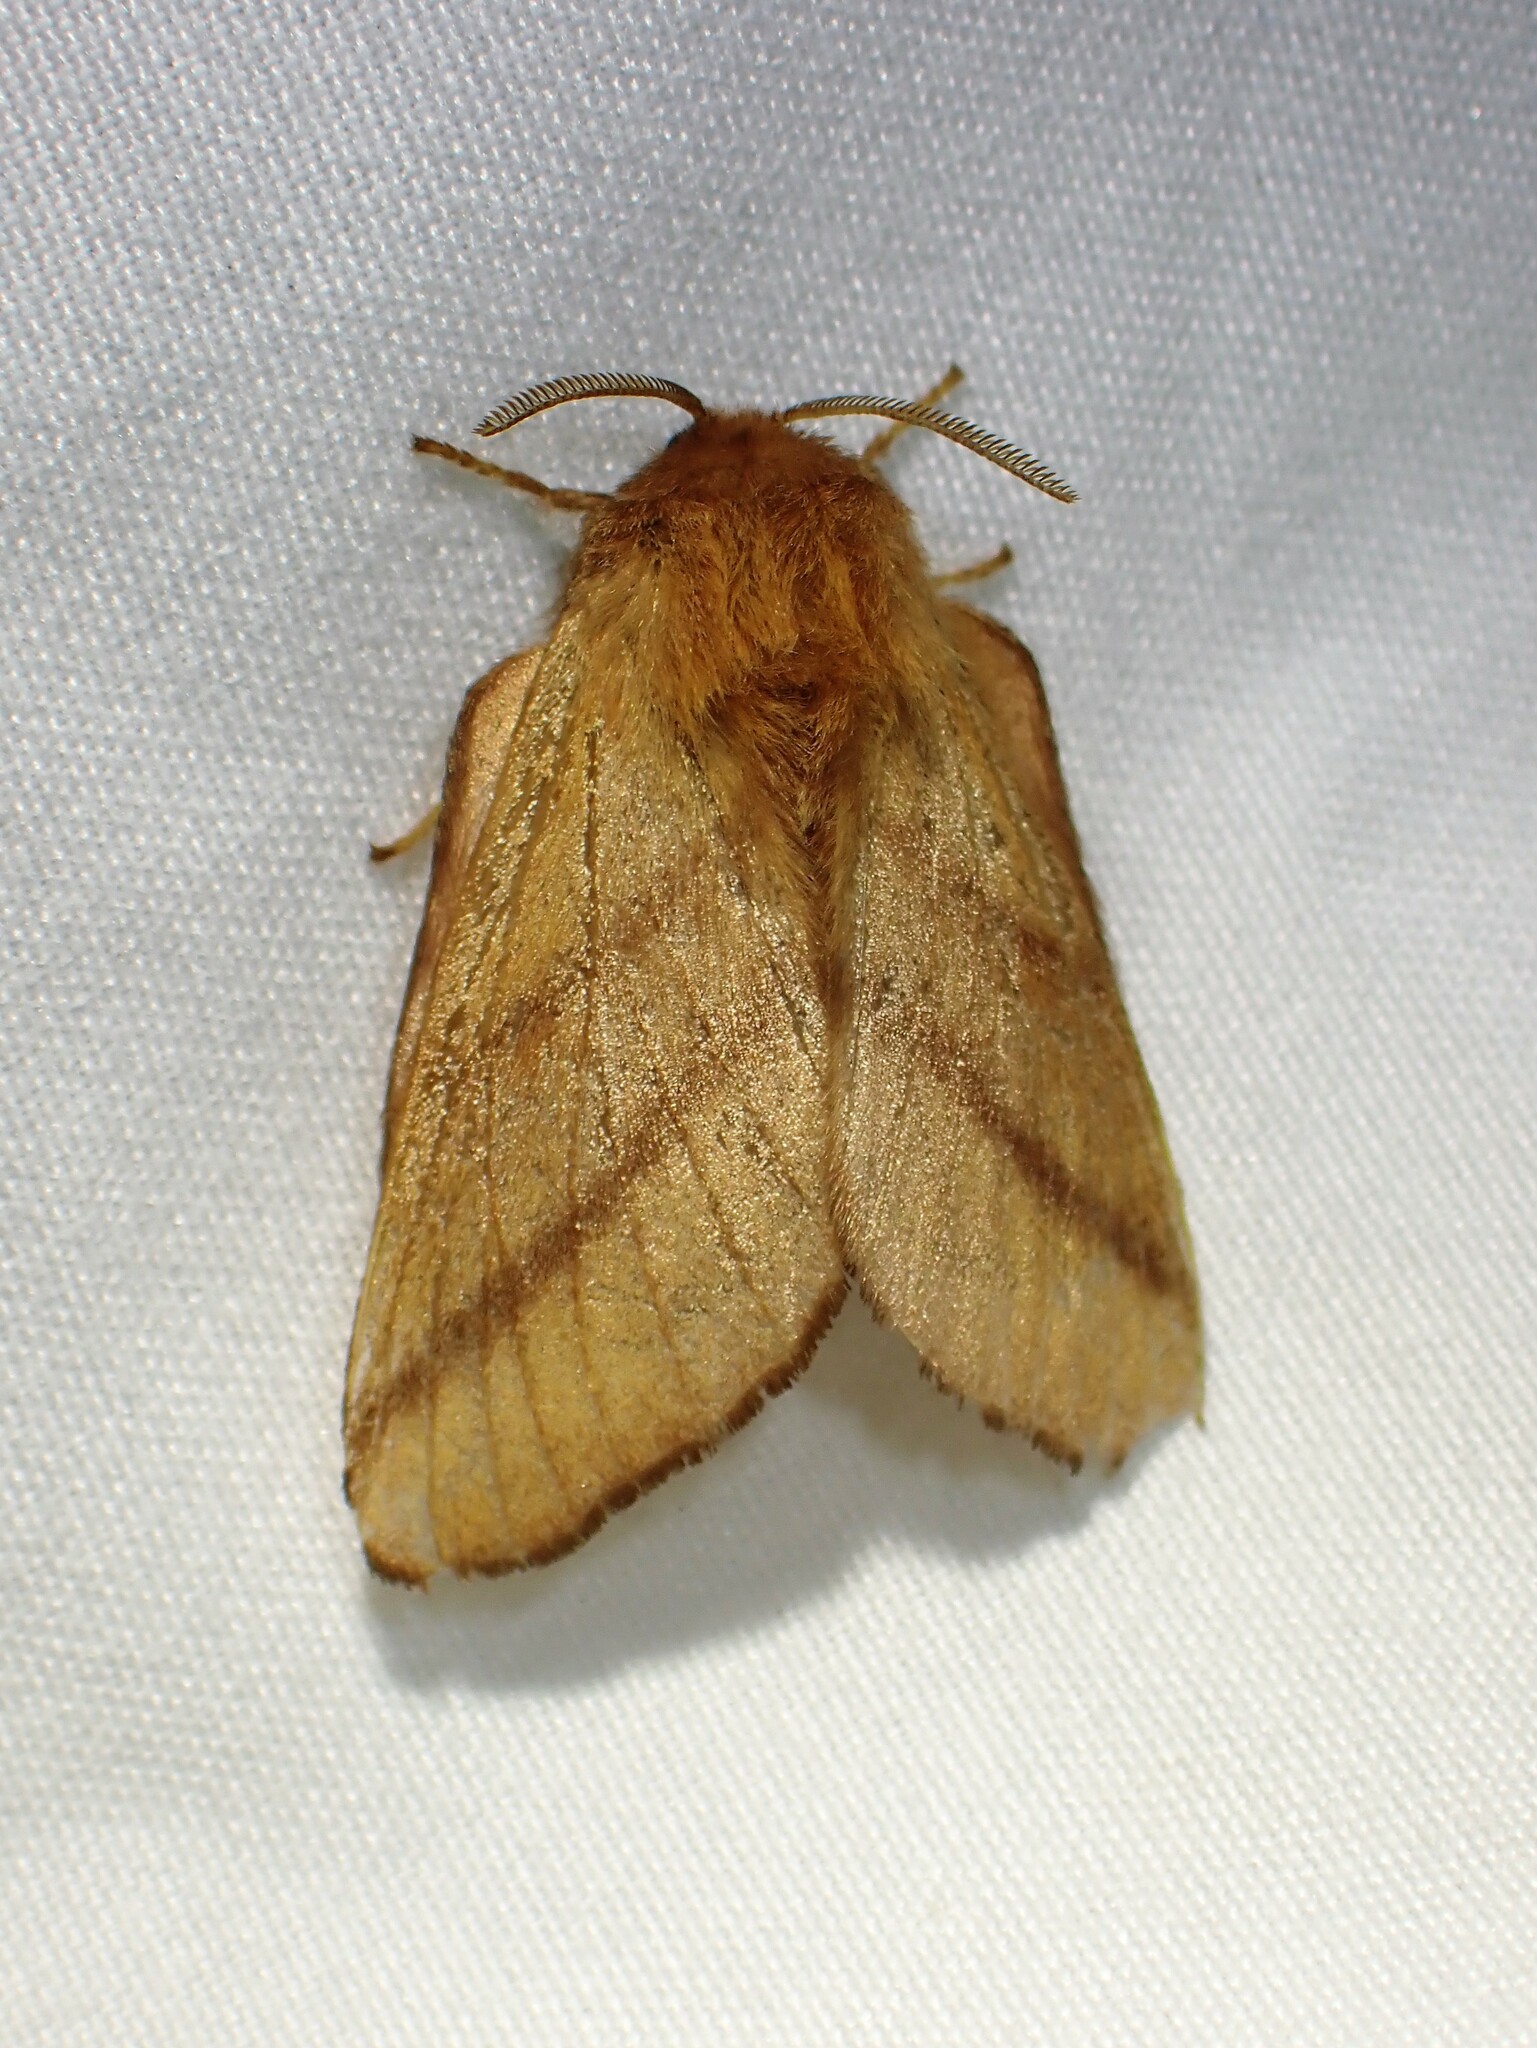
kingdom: Animalia
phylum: Arthropoda
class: Insecta
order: Lepidoptera
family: Lasiocampidae
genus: Malacosoma
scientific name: Malacosoma disstria
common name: Forest tent caterpillar
